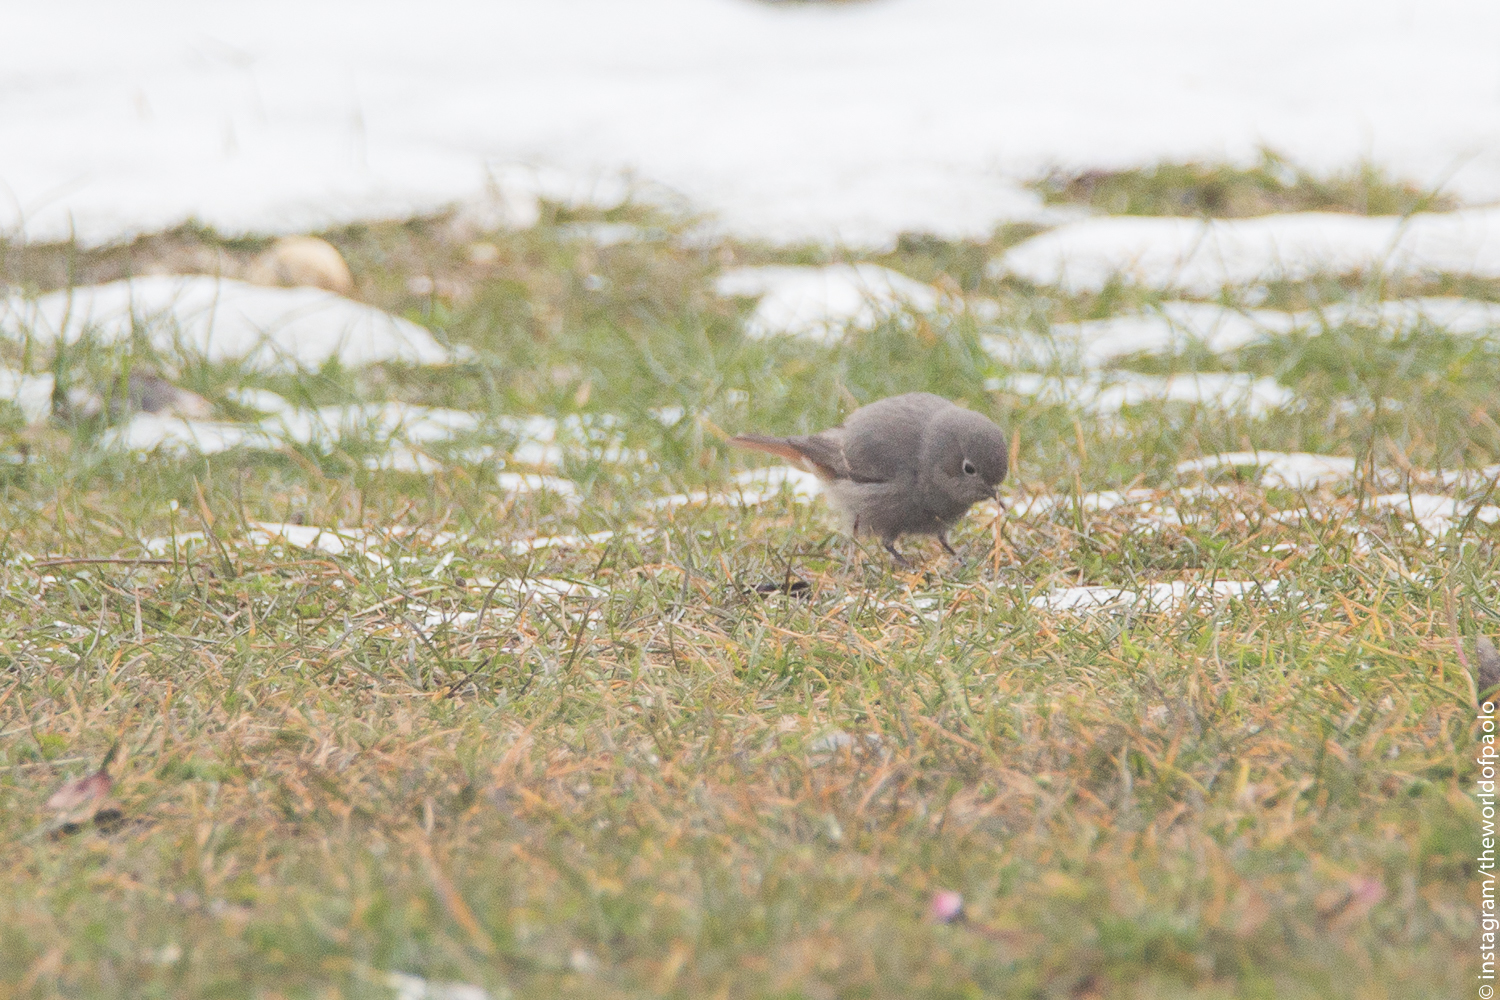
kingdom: Animalia
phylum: Chordata
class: Aves
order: Passeriformes
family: Muscicapidae
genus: Phoenicurus
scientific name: Phoenicurus ochruros
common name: Black redstart
